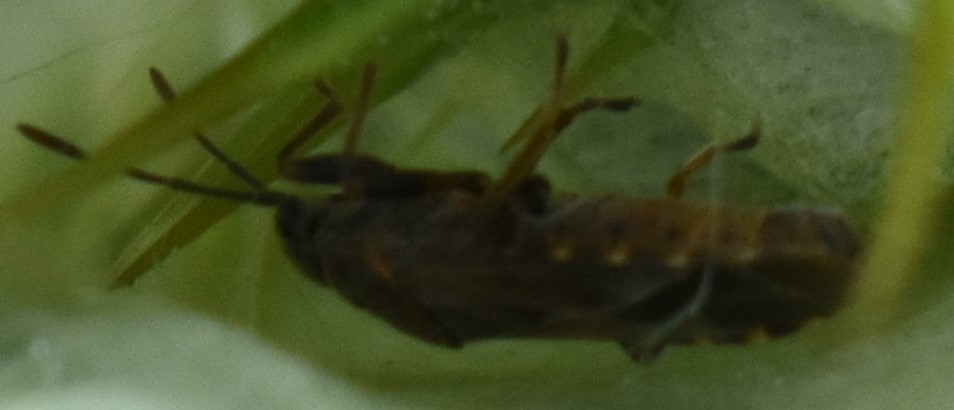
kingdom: Animalia
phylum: Arthropoda
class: Insecta
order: Hemiptera
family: Lygaeidae
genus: Arocatus
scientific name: Arocatus melanocephalus
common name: Lygaeid bug
